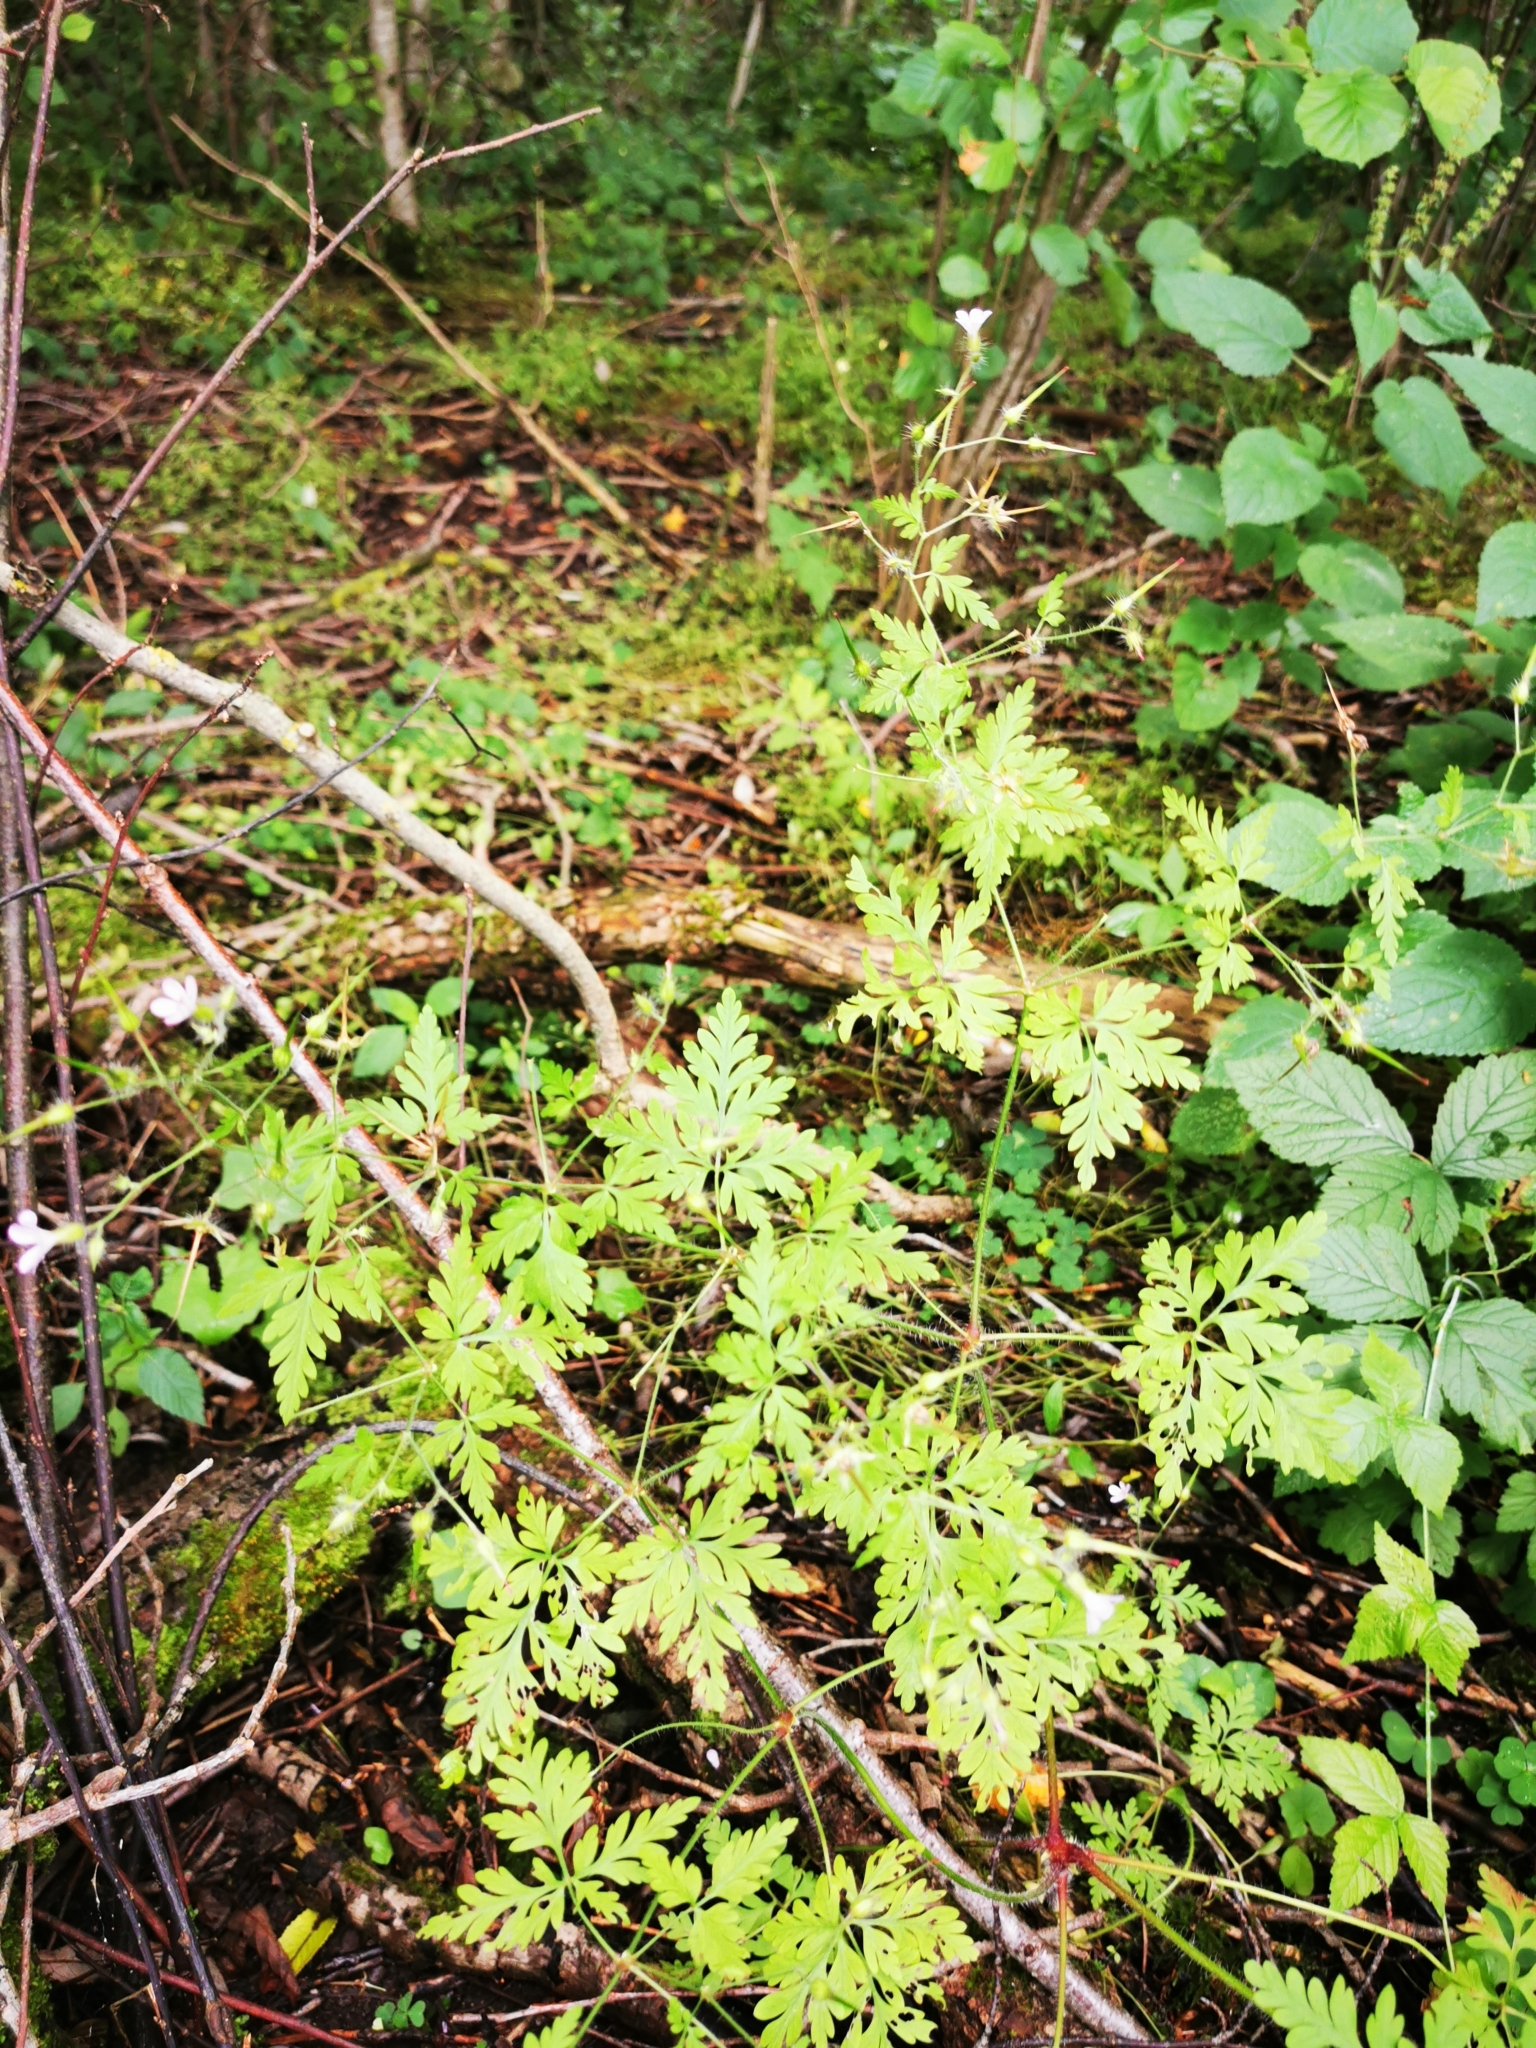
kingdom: Plantae
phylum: Tracheophyta
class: Magnoliopsida
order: Geraniales
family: Geraniaceae
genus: Geranium
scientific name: Geranium robertianum
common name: Herb-robert
